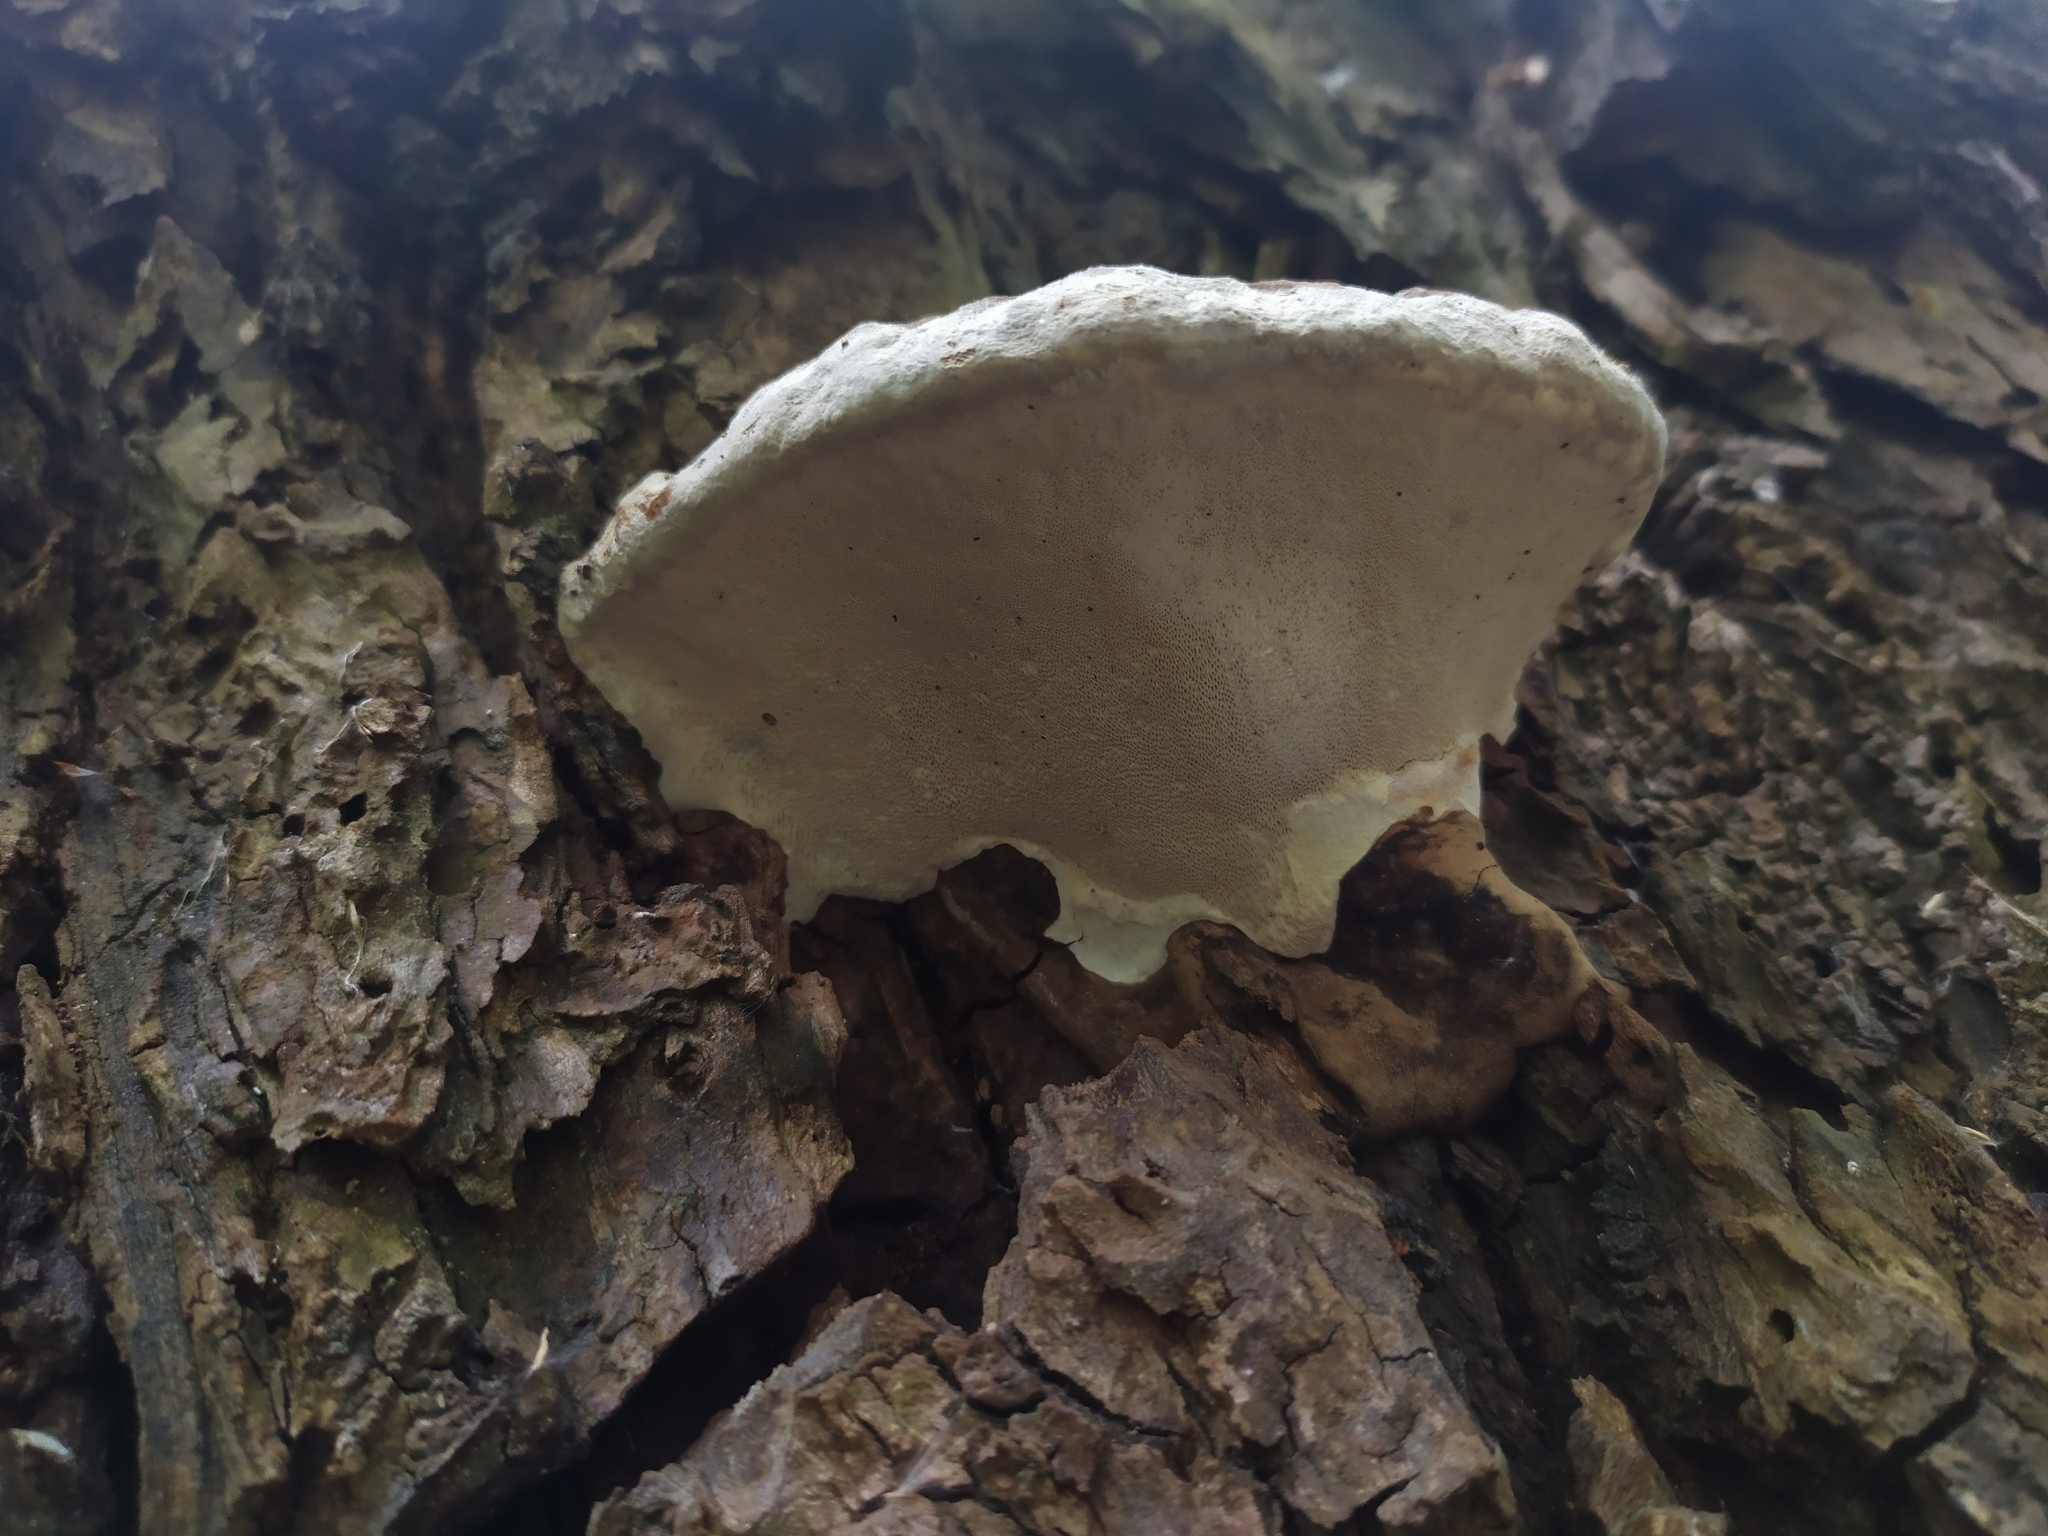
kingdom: Fungi
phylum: Basidiomycota
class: Agaricomycetes
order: Polyporales
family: Polyporaceae
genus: Ganoderma
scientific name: Ganoderma applanatum
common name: Artist's bracket
